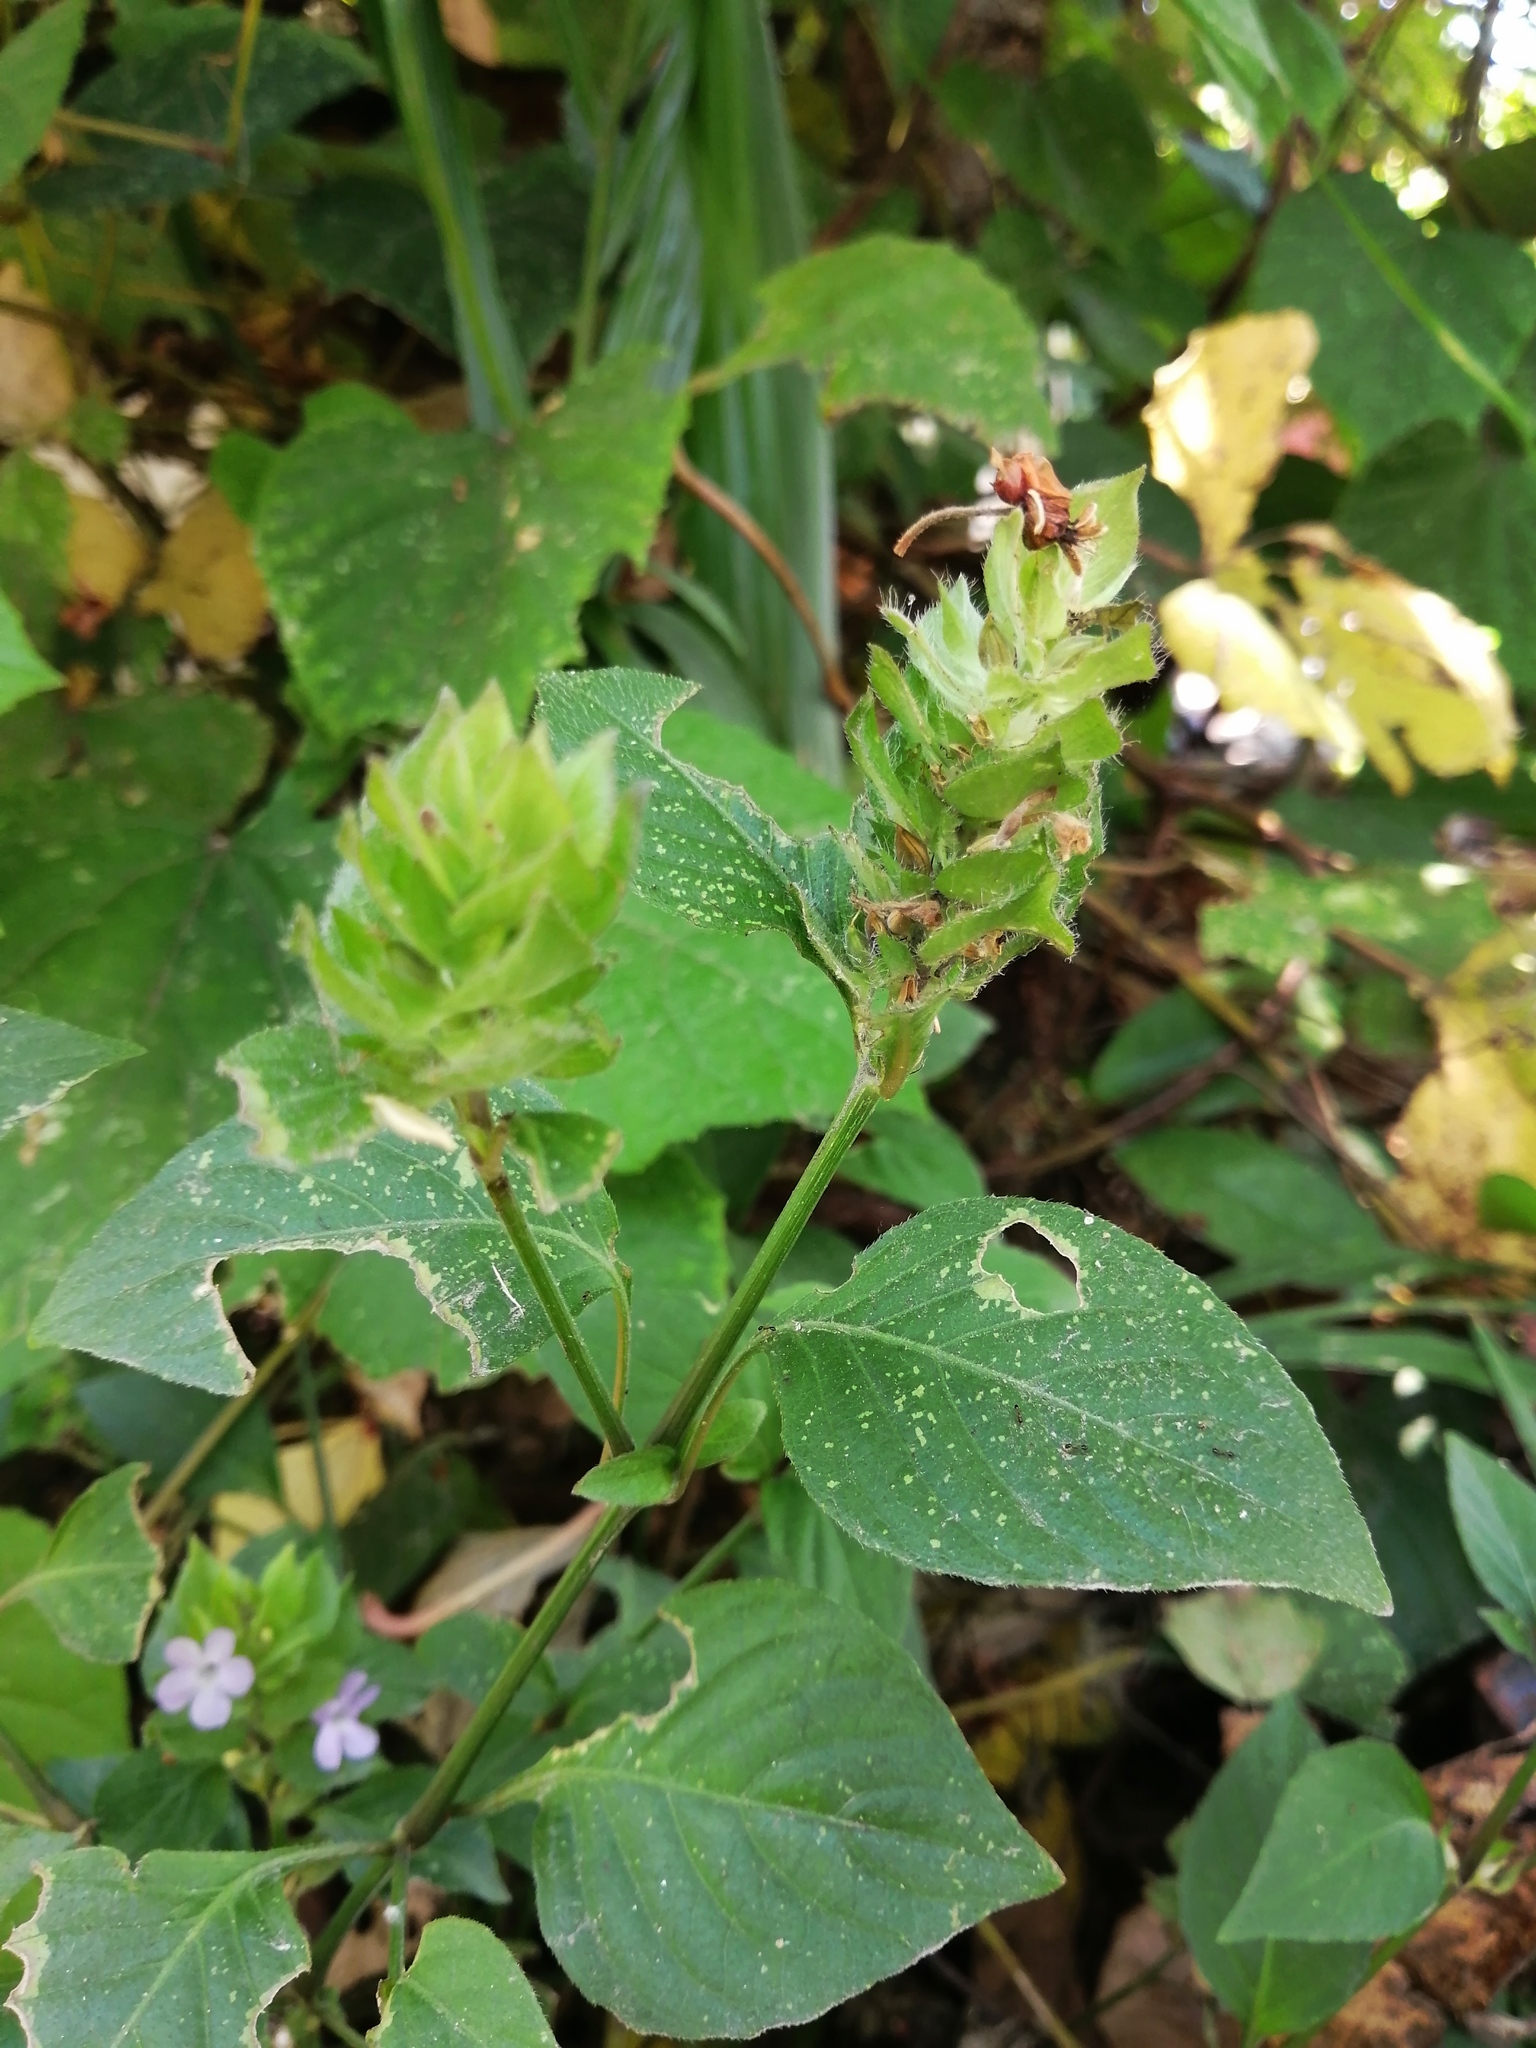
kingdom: Plantae
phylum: Tracheophyta
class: Magnoliopsida
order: Lamiales
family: Acanthaceae
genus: Ruellia
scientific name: Ruellia blechum
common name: Browne's blechum
